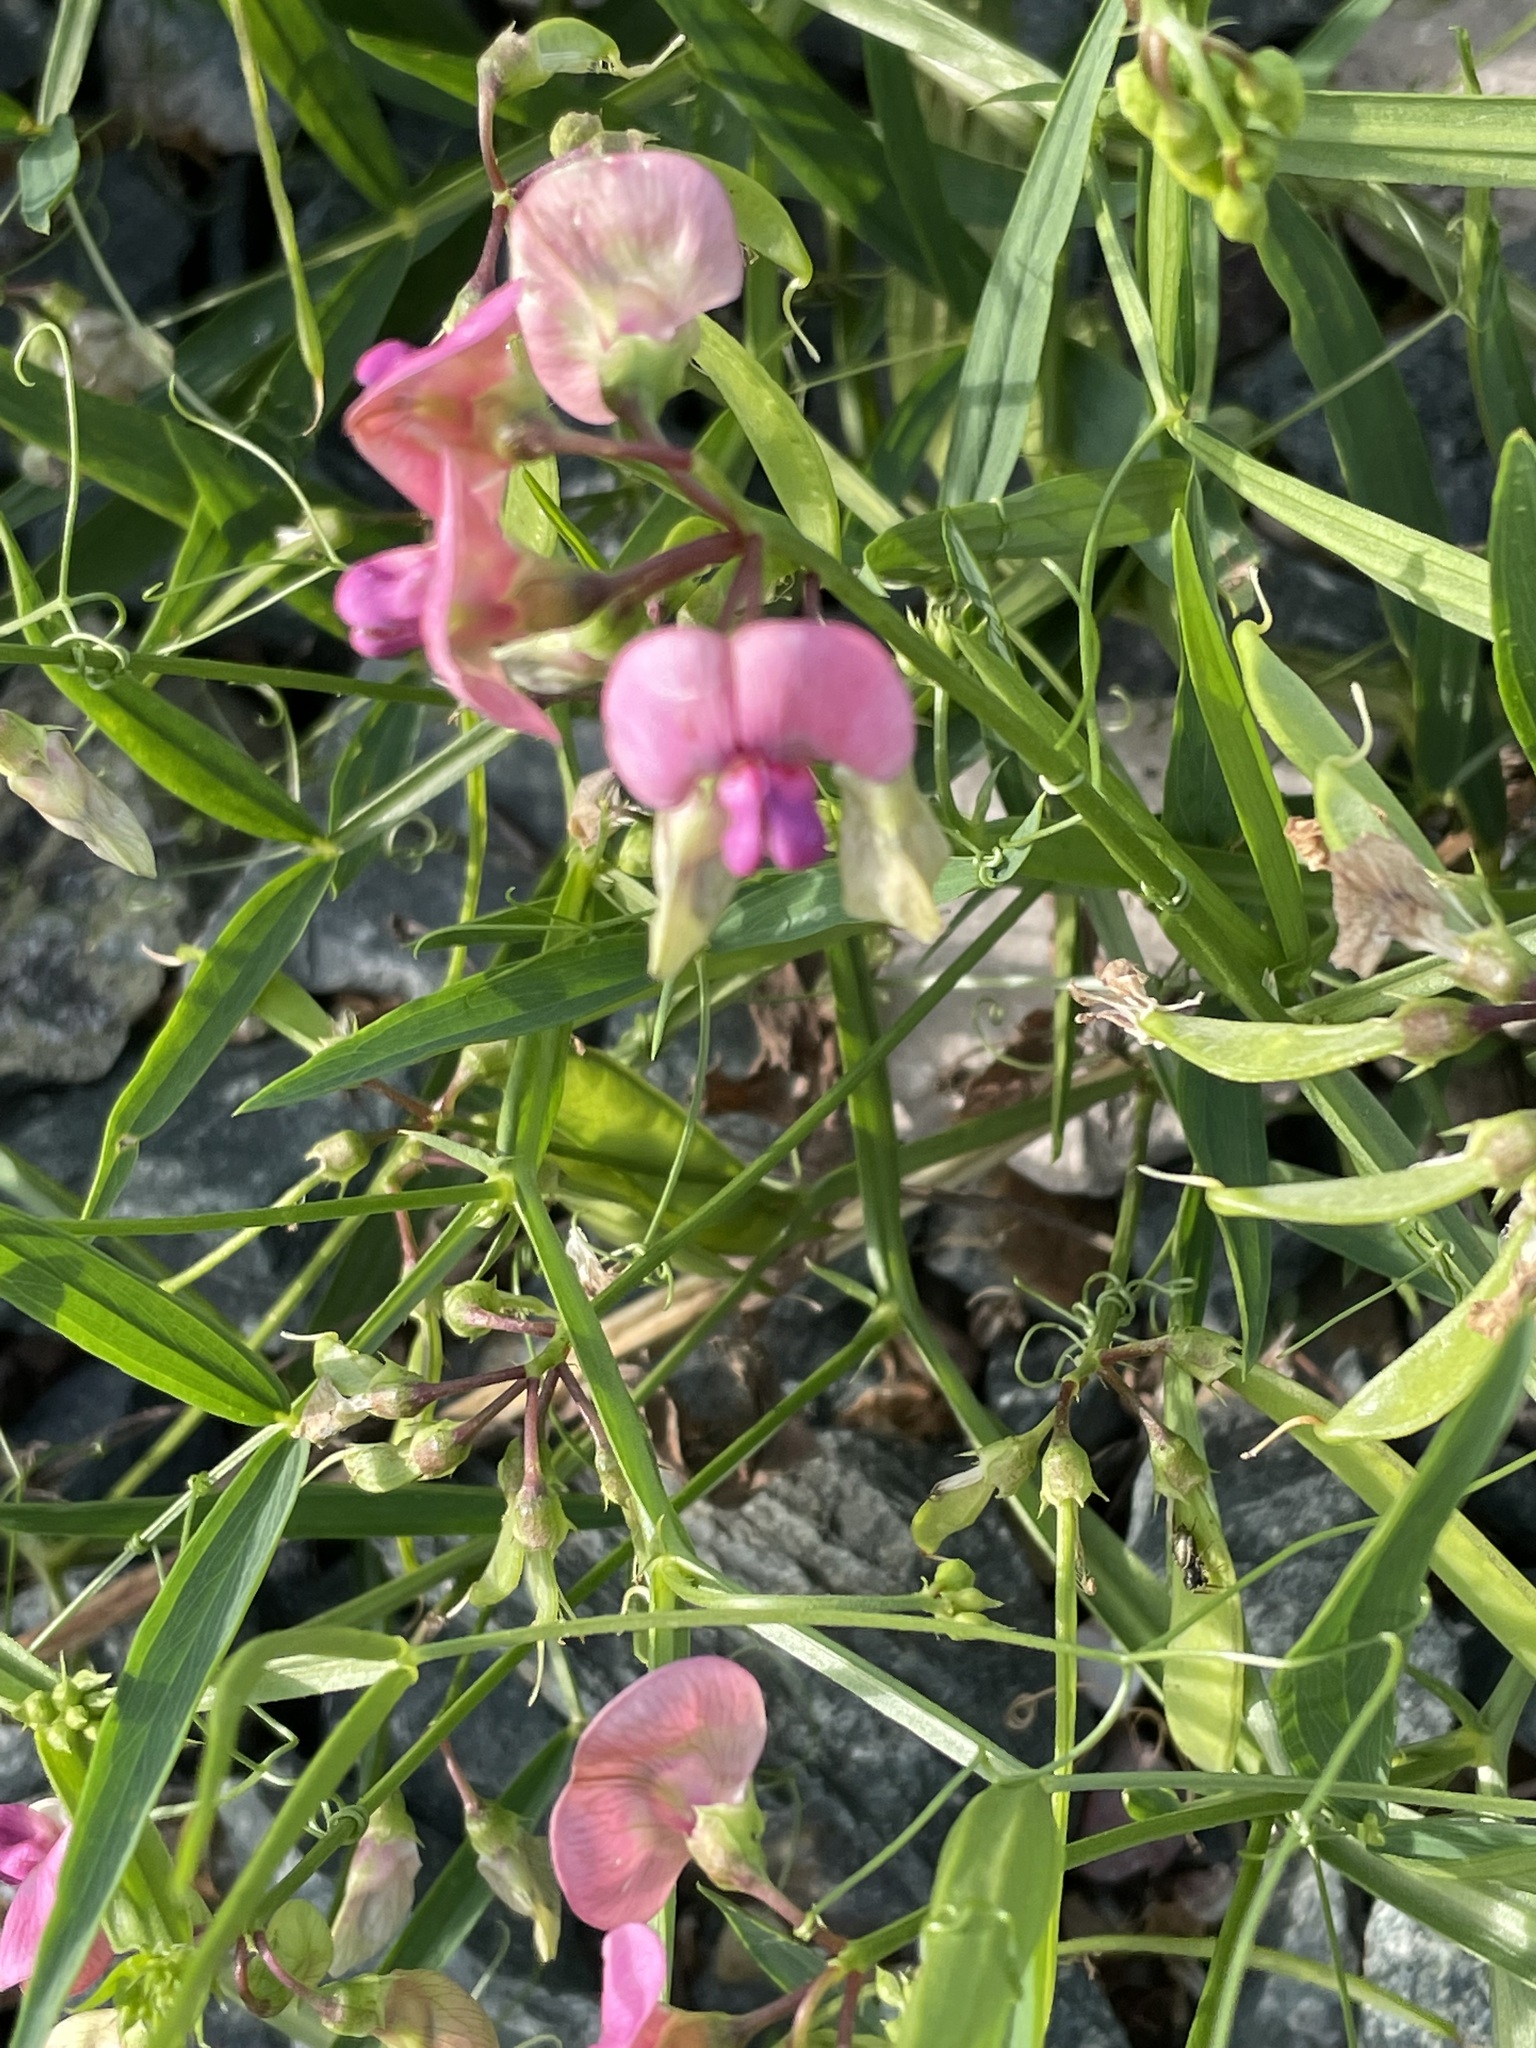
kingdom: Plantae
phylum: Tracheophyta
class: Magnoliopsida
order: Fabales
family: Fabaceae
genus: Lathyrus
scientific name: Lathyrus sylvestris
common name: Flat pea
